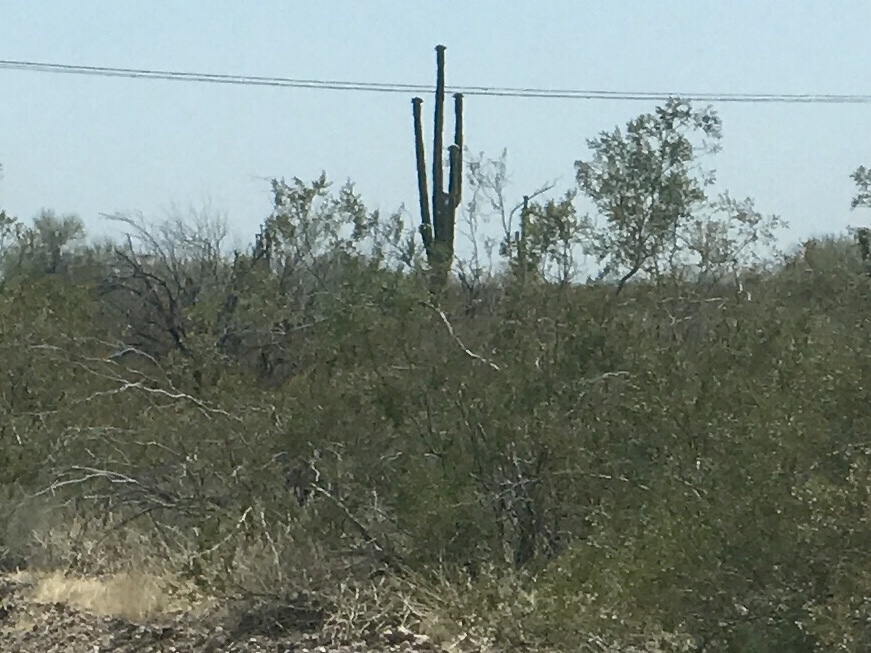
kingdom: Plantae
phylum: Tracheophyta
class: Magnoliopsida
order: Zygophyllales
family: Zygophyllaceae
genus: Larrea
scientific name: Larrea tridentata
